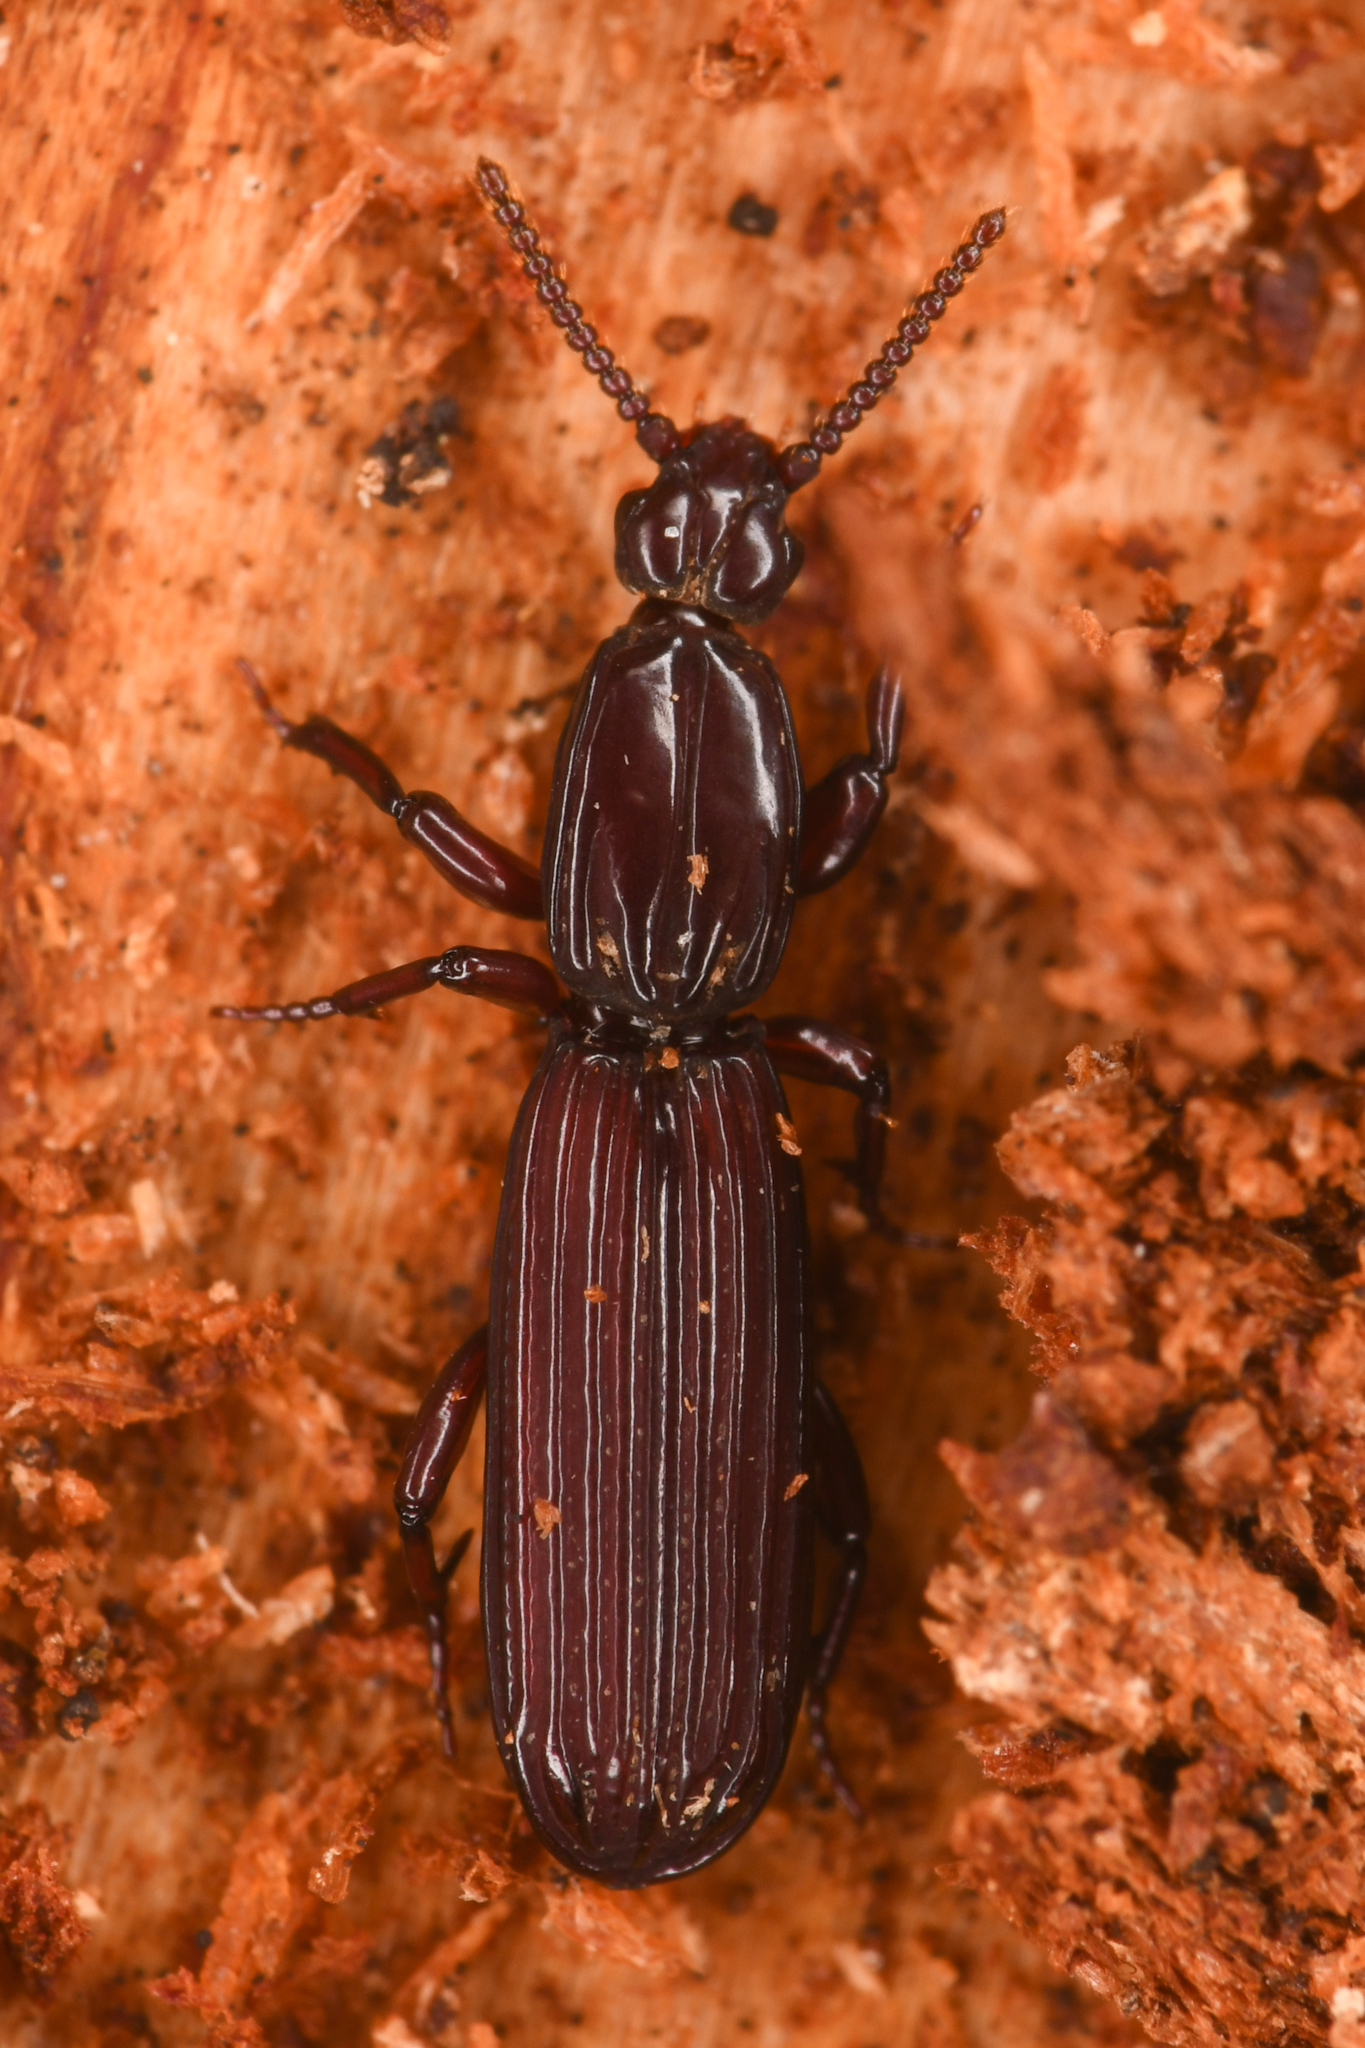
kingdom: Animalia
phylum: Arthropoda
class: Insecta
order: Coleoptera
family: Carabidae
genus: Clinidium
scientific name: Clinidium calcaratum
